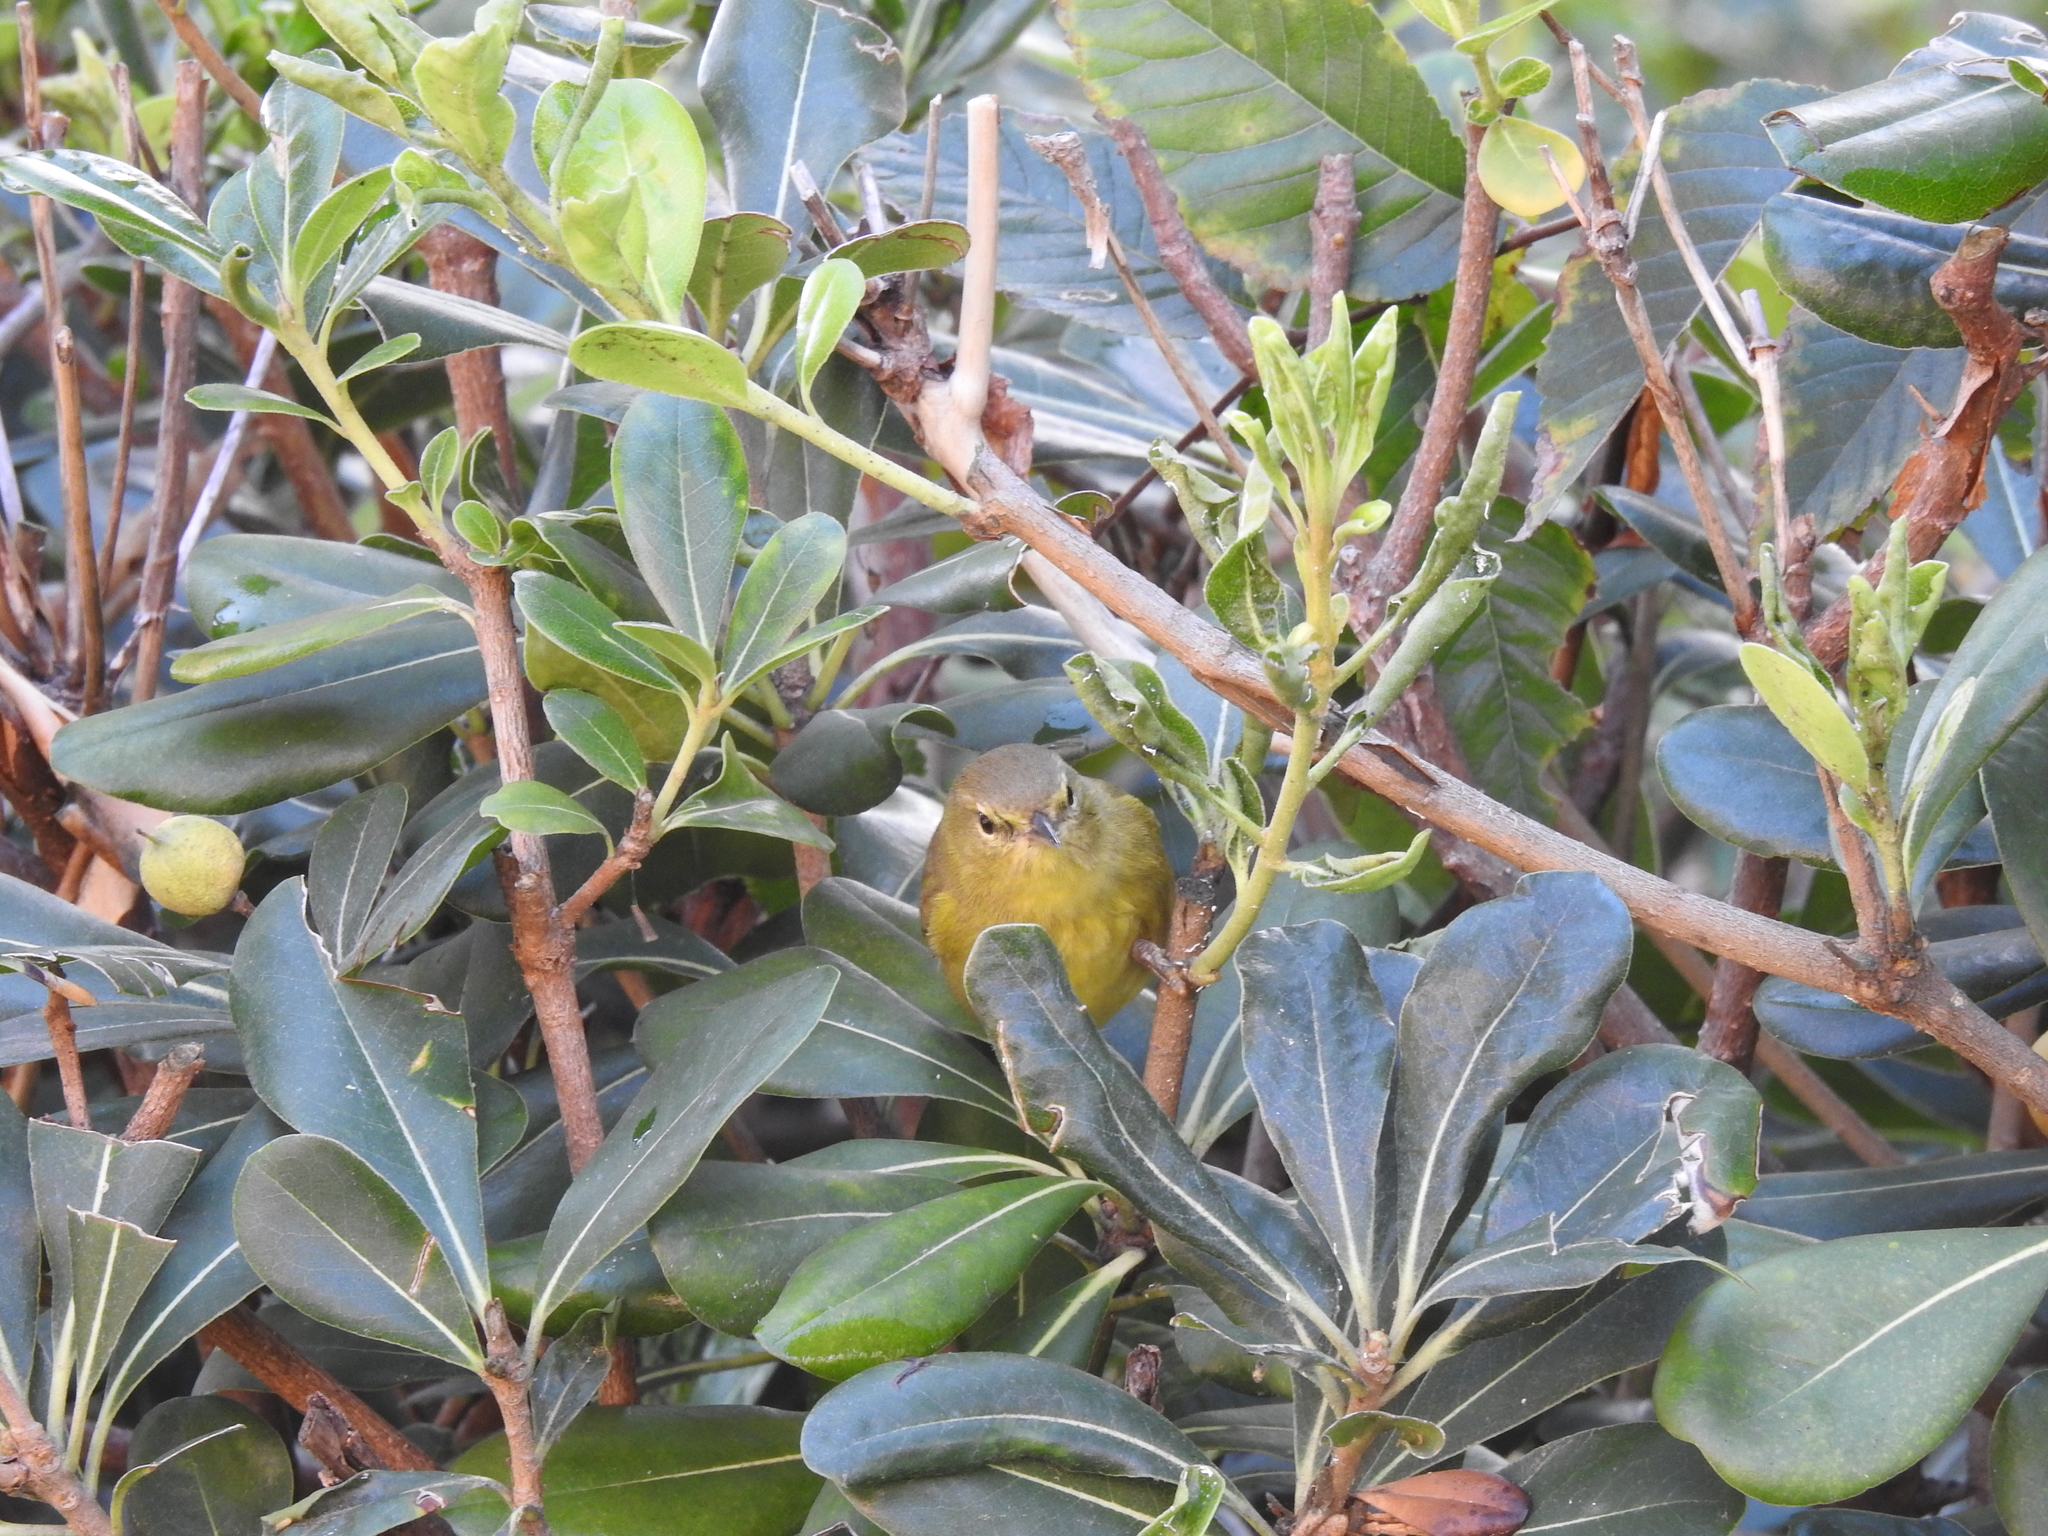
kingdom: Animalia
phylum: Chordata
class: Aves
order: Passeriformes
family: Parulidae
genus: Leiothlypis
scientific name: Leiothlypis celata
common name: Orange-crowned warbler
